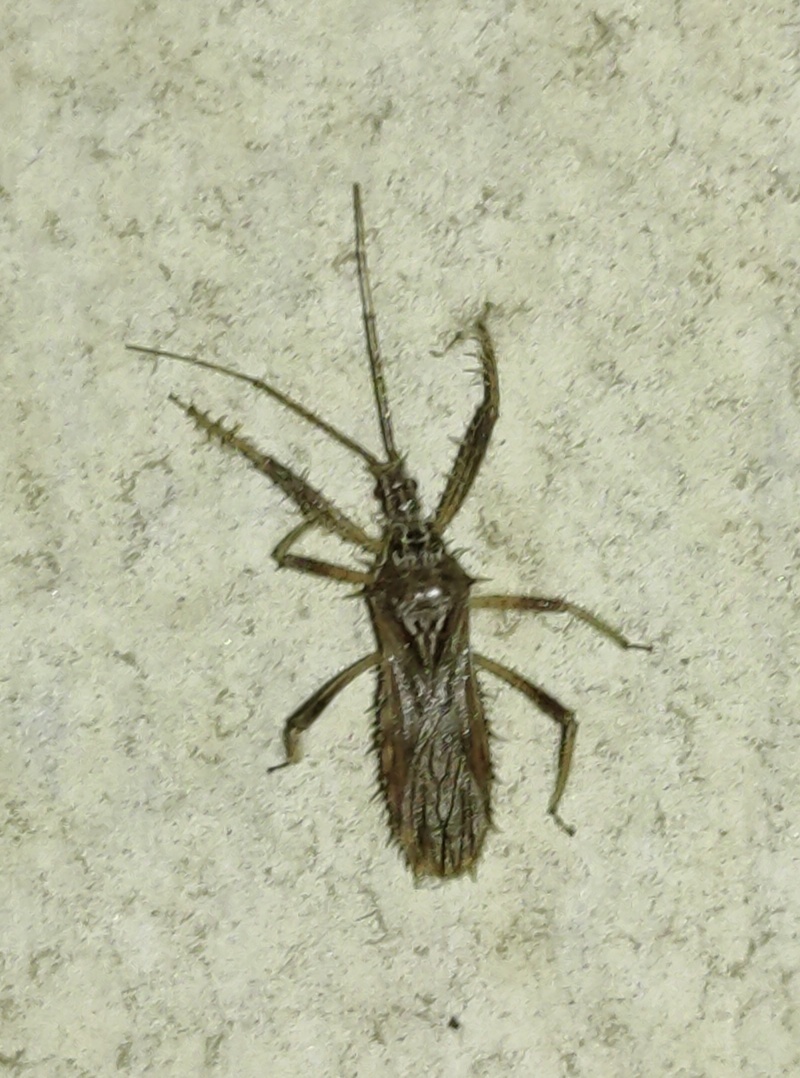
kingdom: Animalia
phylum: Arthropoda
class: Insecta
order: Hemiptera
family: Reduviidae
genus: Polididus
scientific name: Polididus armatissimus
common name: Assassin bug
